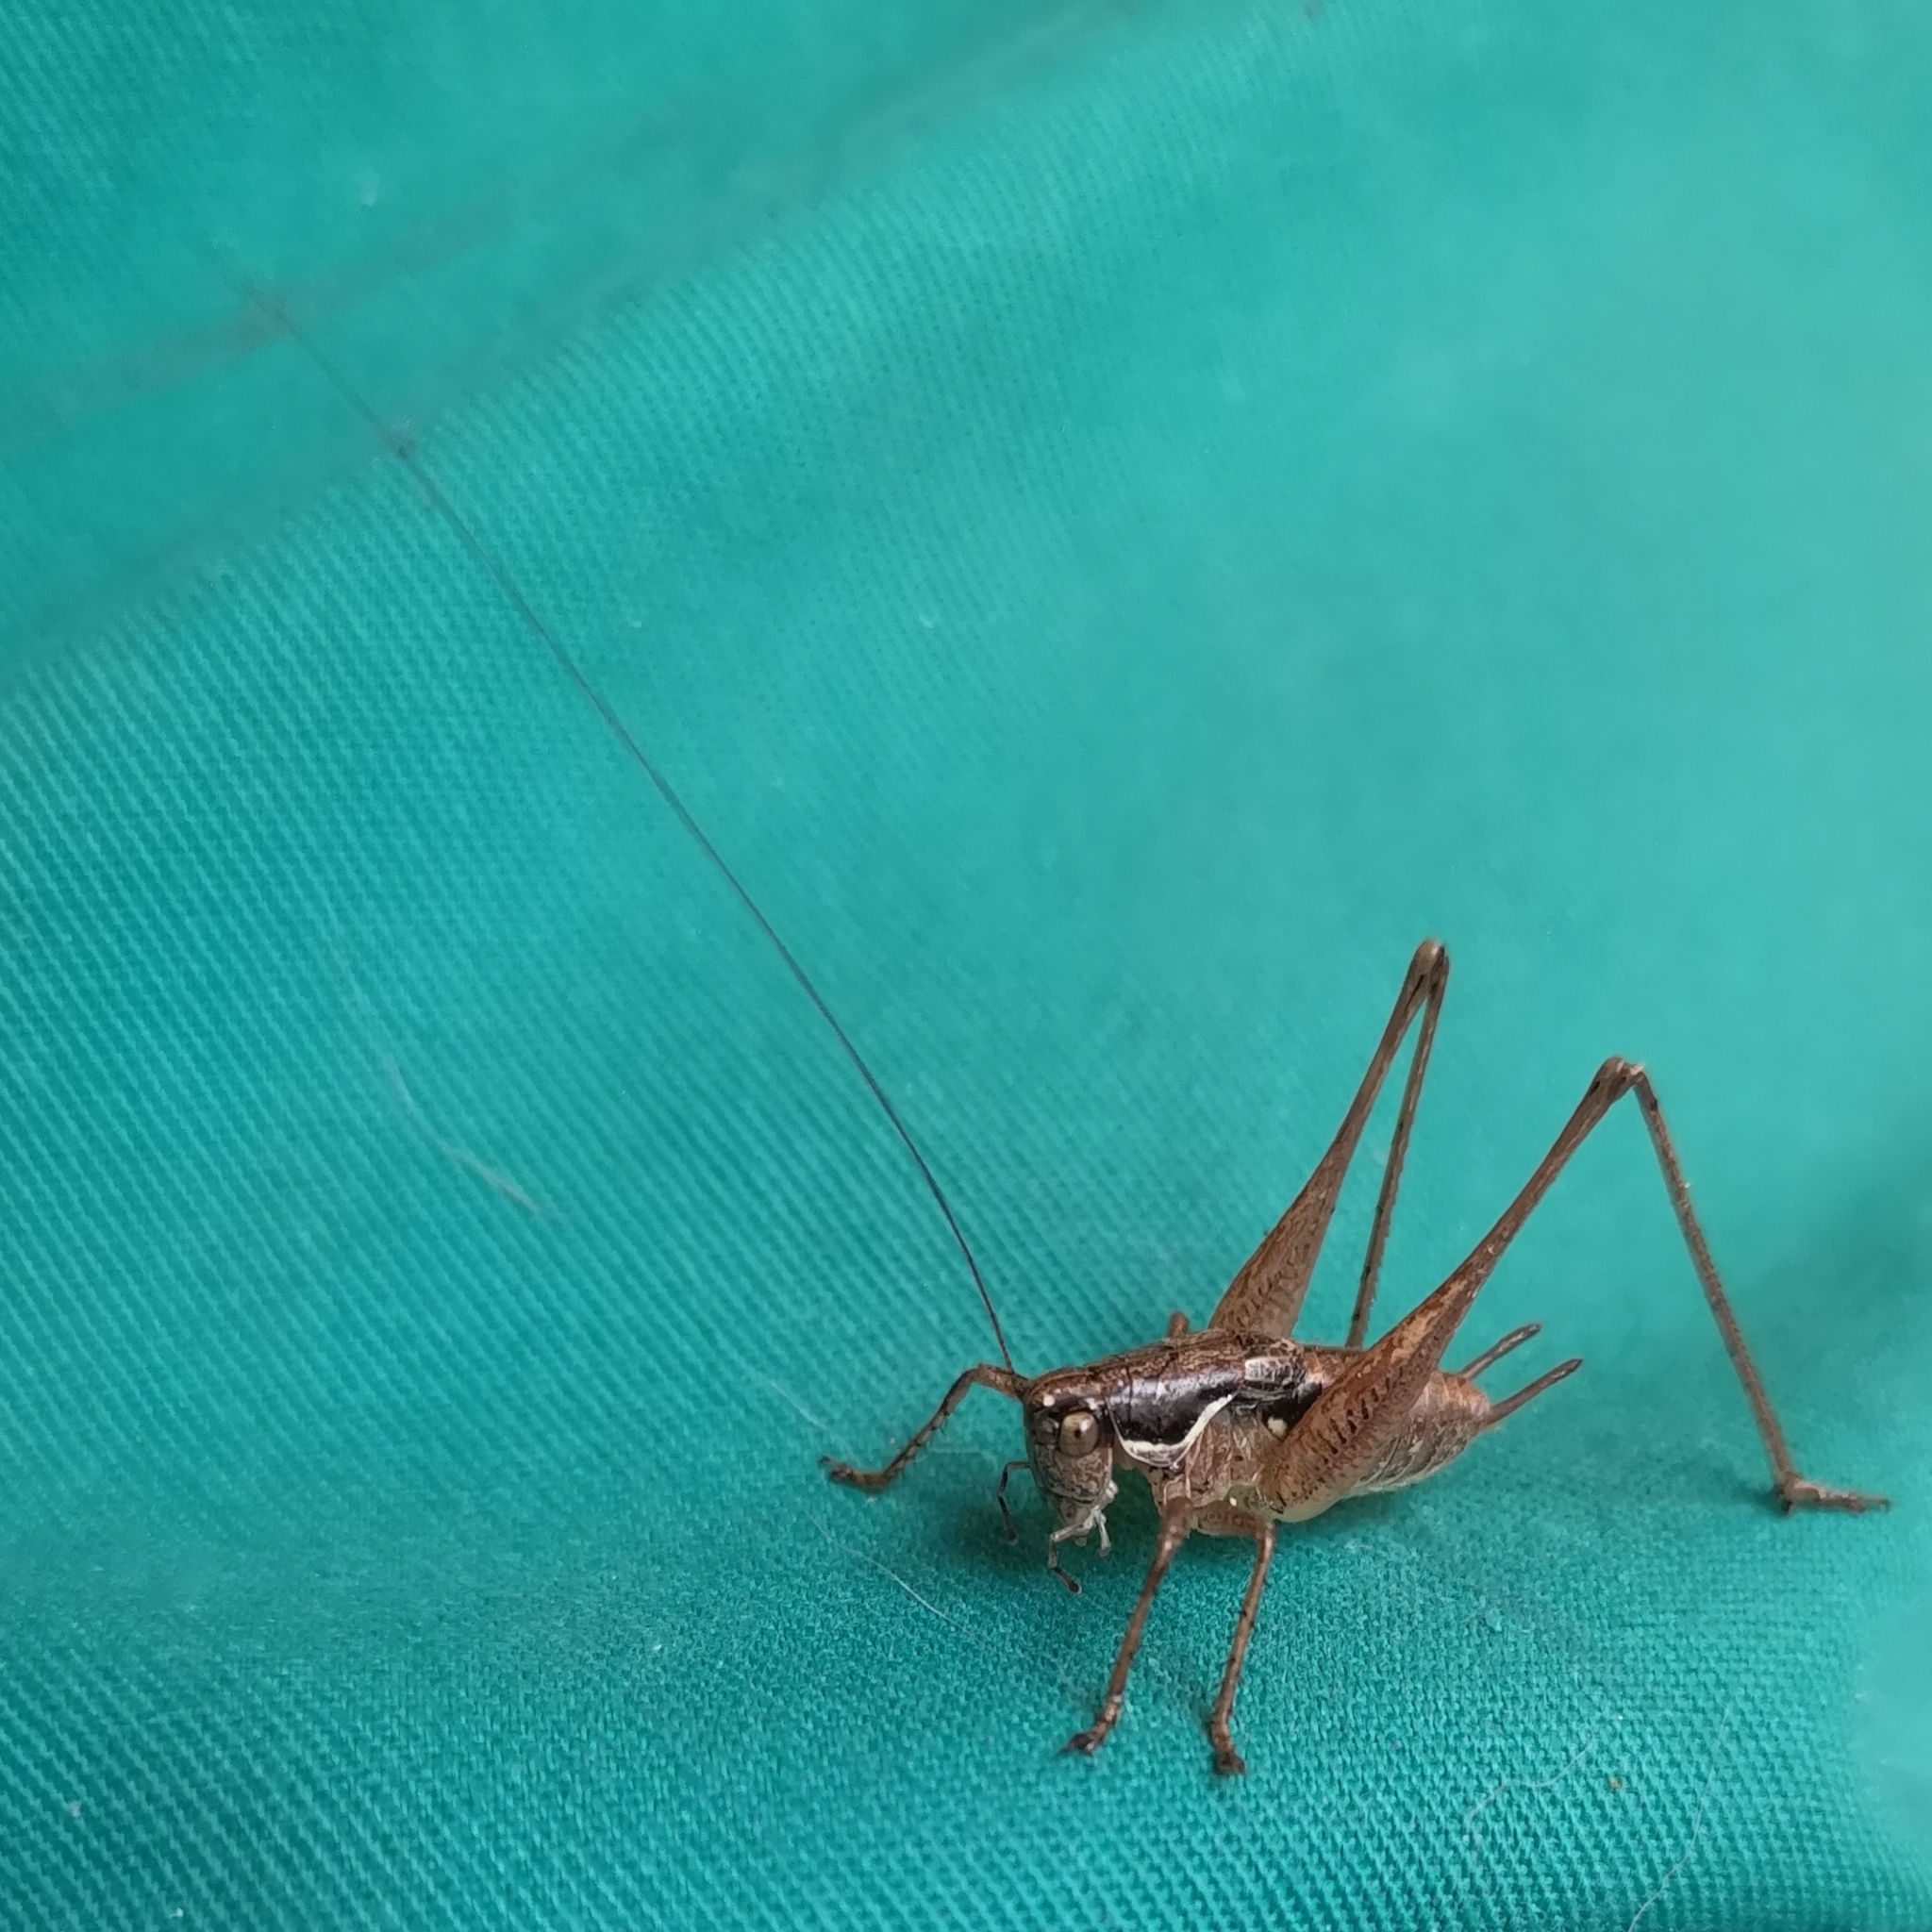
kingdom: Animalia
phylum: Arthropoda
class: Insecta
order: Orthoptera
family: Tettigoniidae
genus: Pachytrachis
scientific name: Pachytrachis gracilis
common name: Graceful bush-cricket
